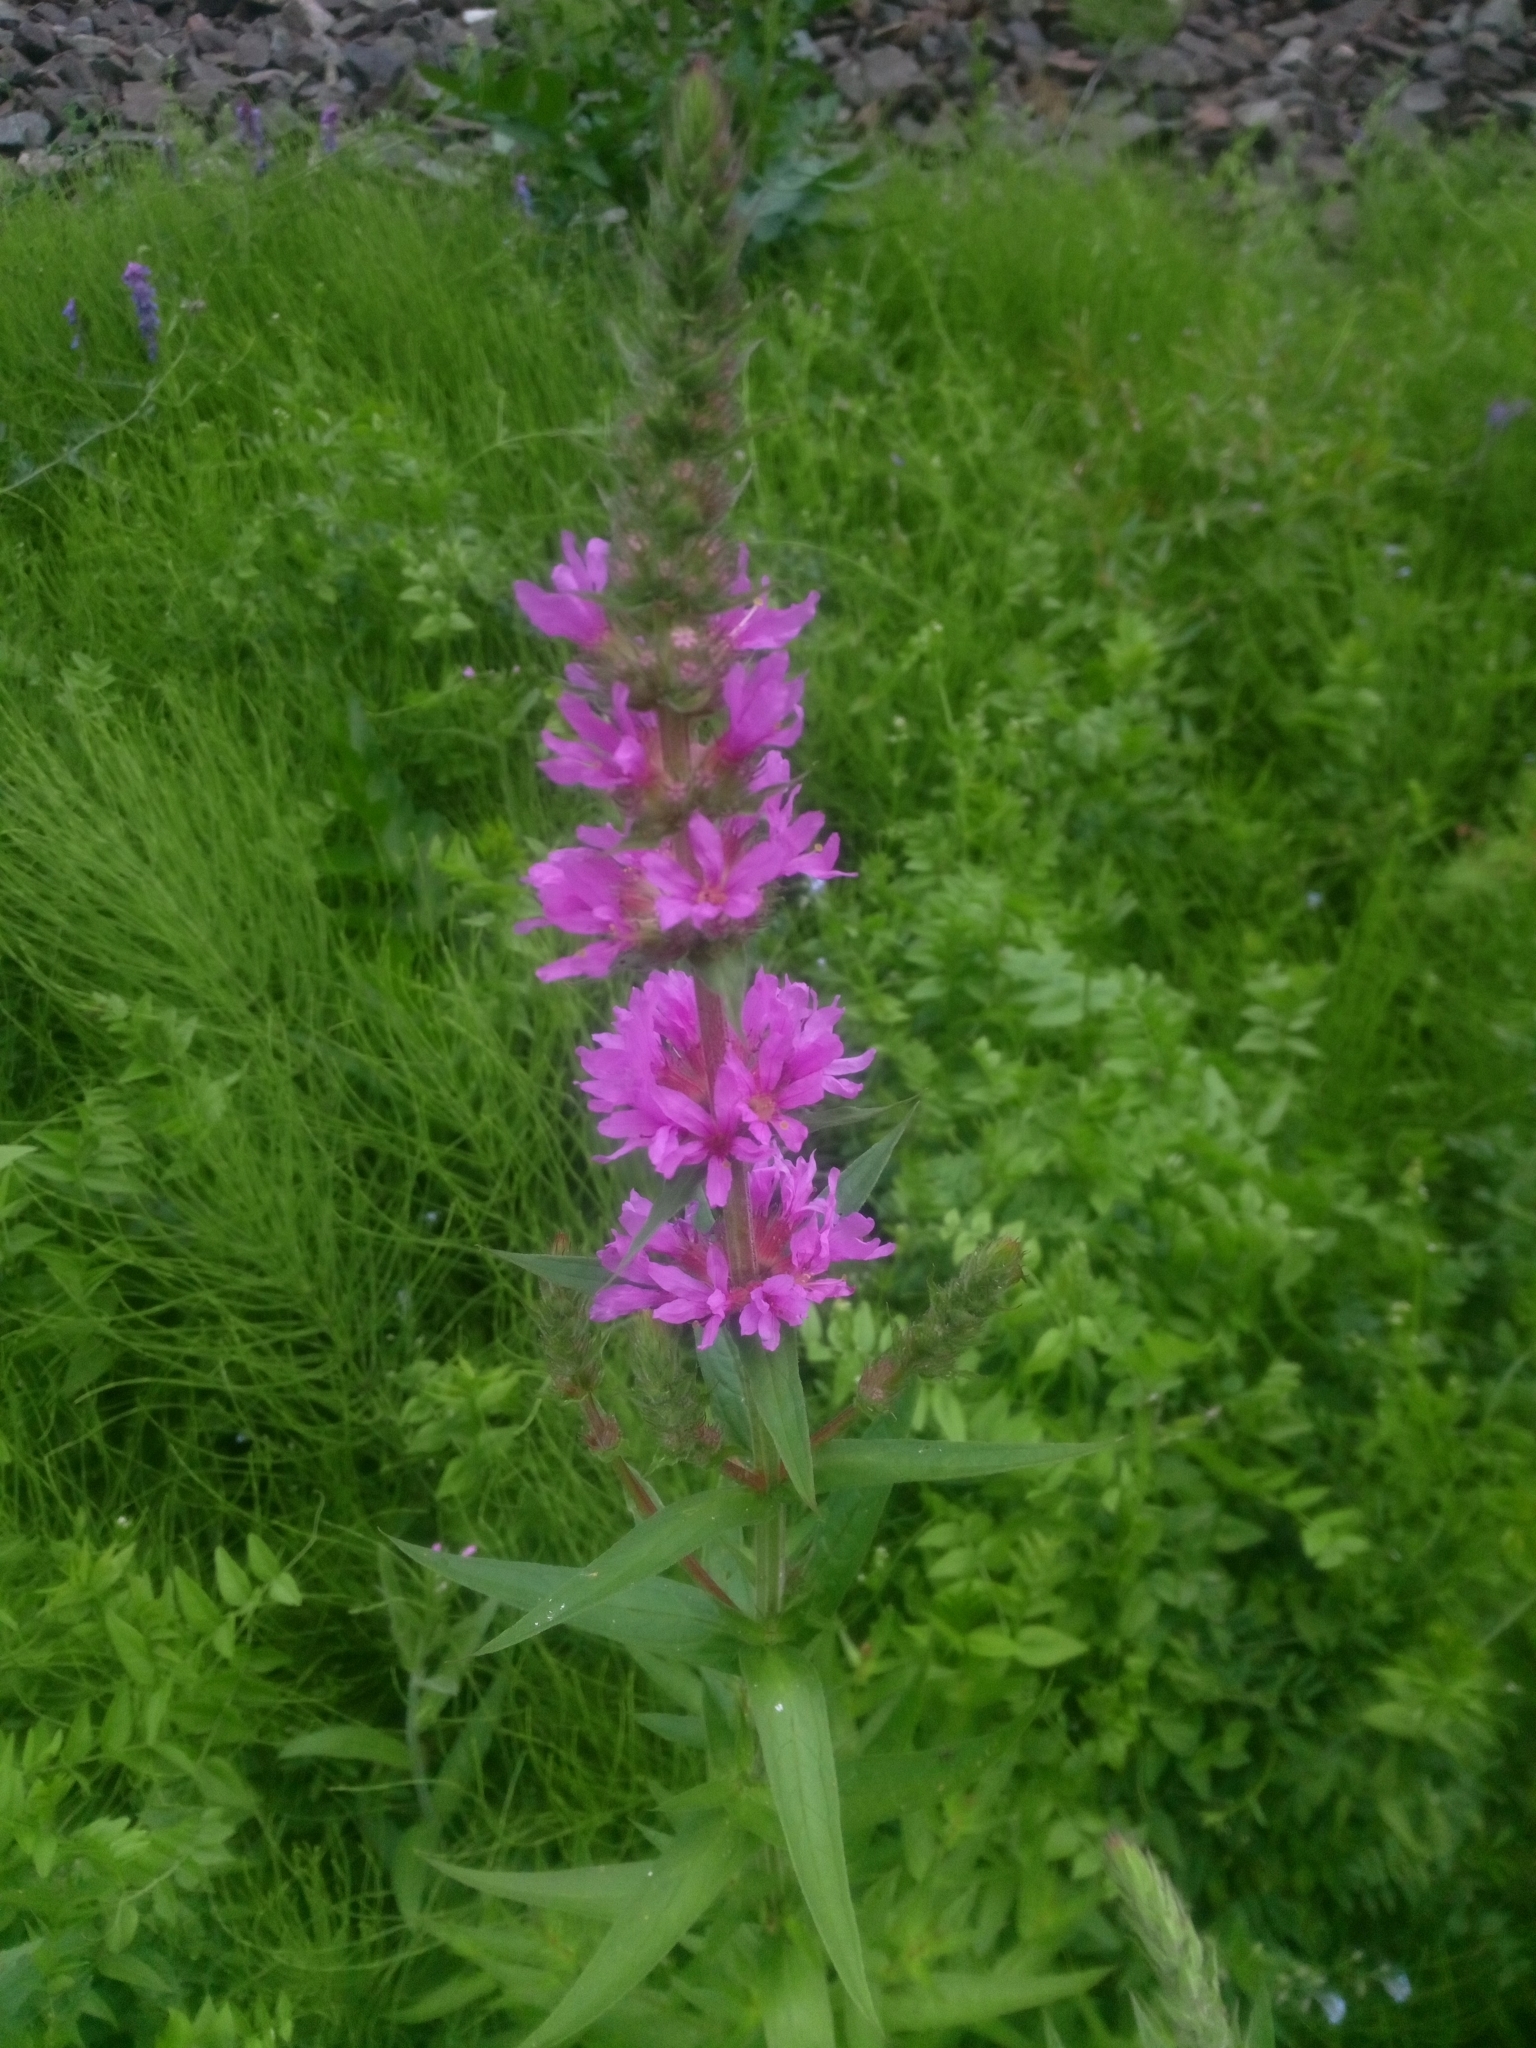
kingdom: Plantae
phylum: Tracheophyta
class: Magnoliopsida
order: Myrtales
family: Lythraceae
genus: Lythrum
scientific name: Lythrum salicaria
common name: Purple loosestrife
